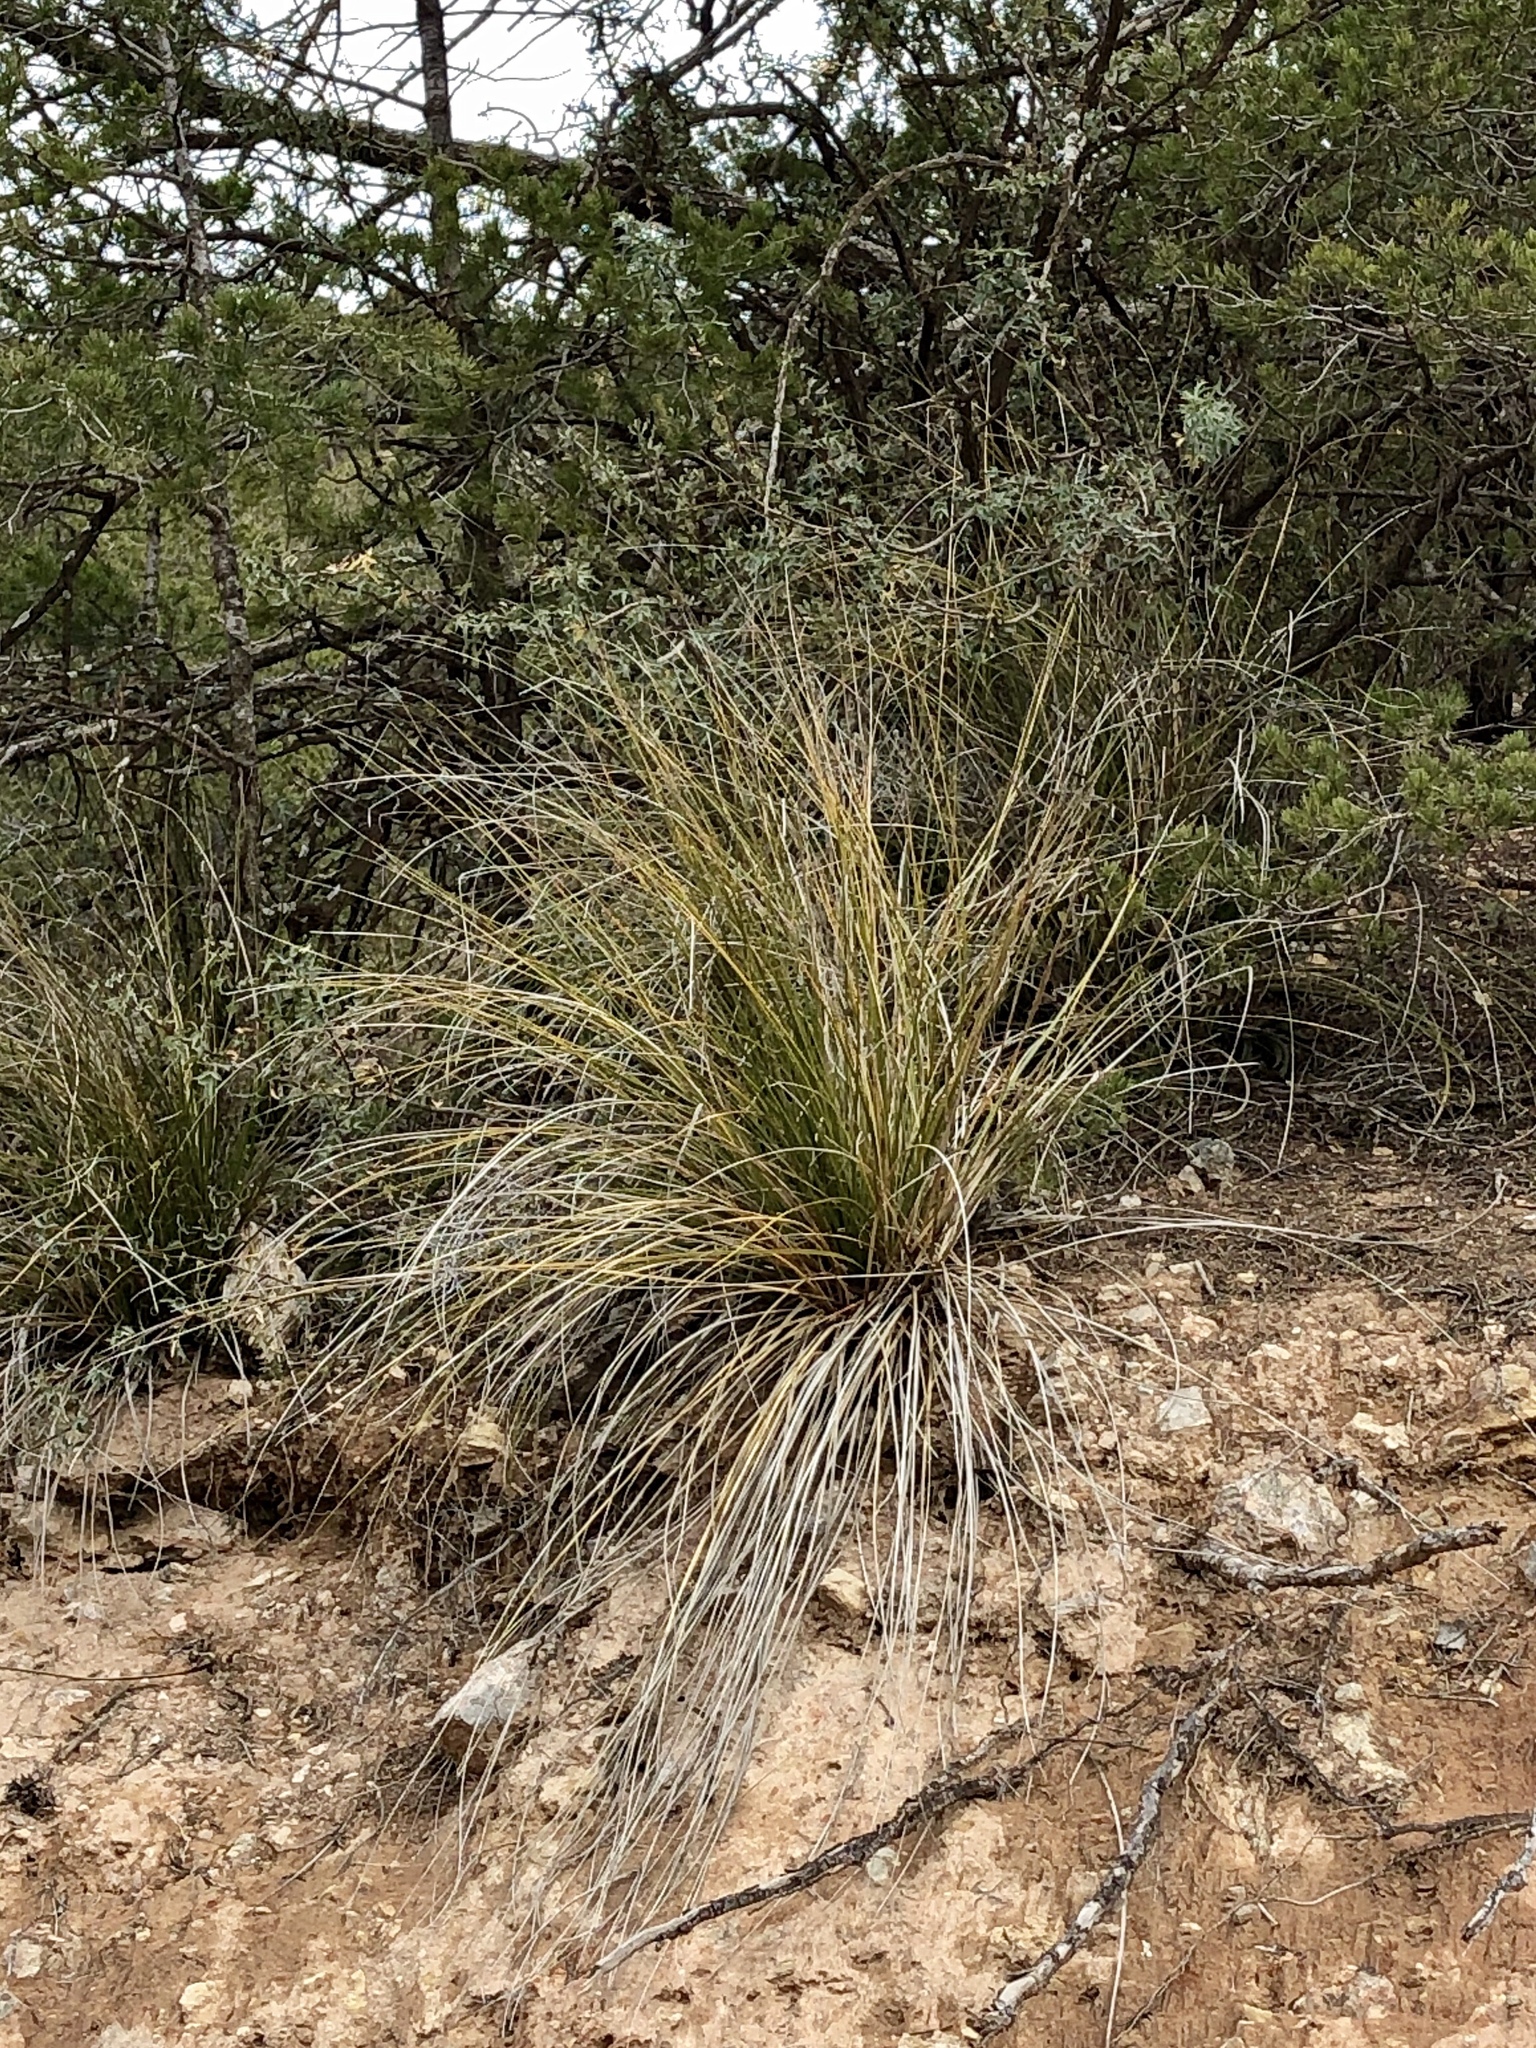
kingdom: Plantae
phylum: Tracheophyta
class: Liliopsida
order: Asparagales
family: Asparagaceae
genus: Nolina
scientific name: Nolina microcarpa
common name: Bear-grass
